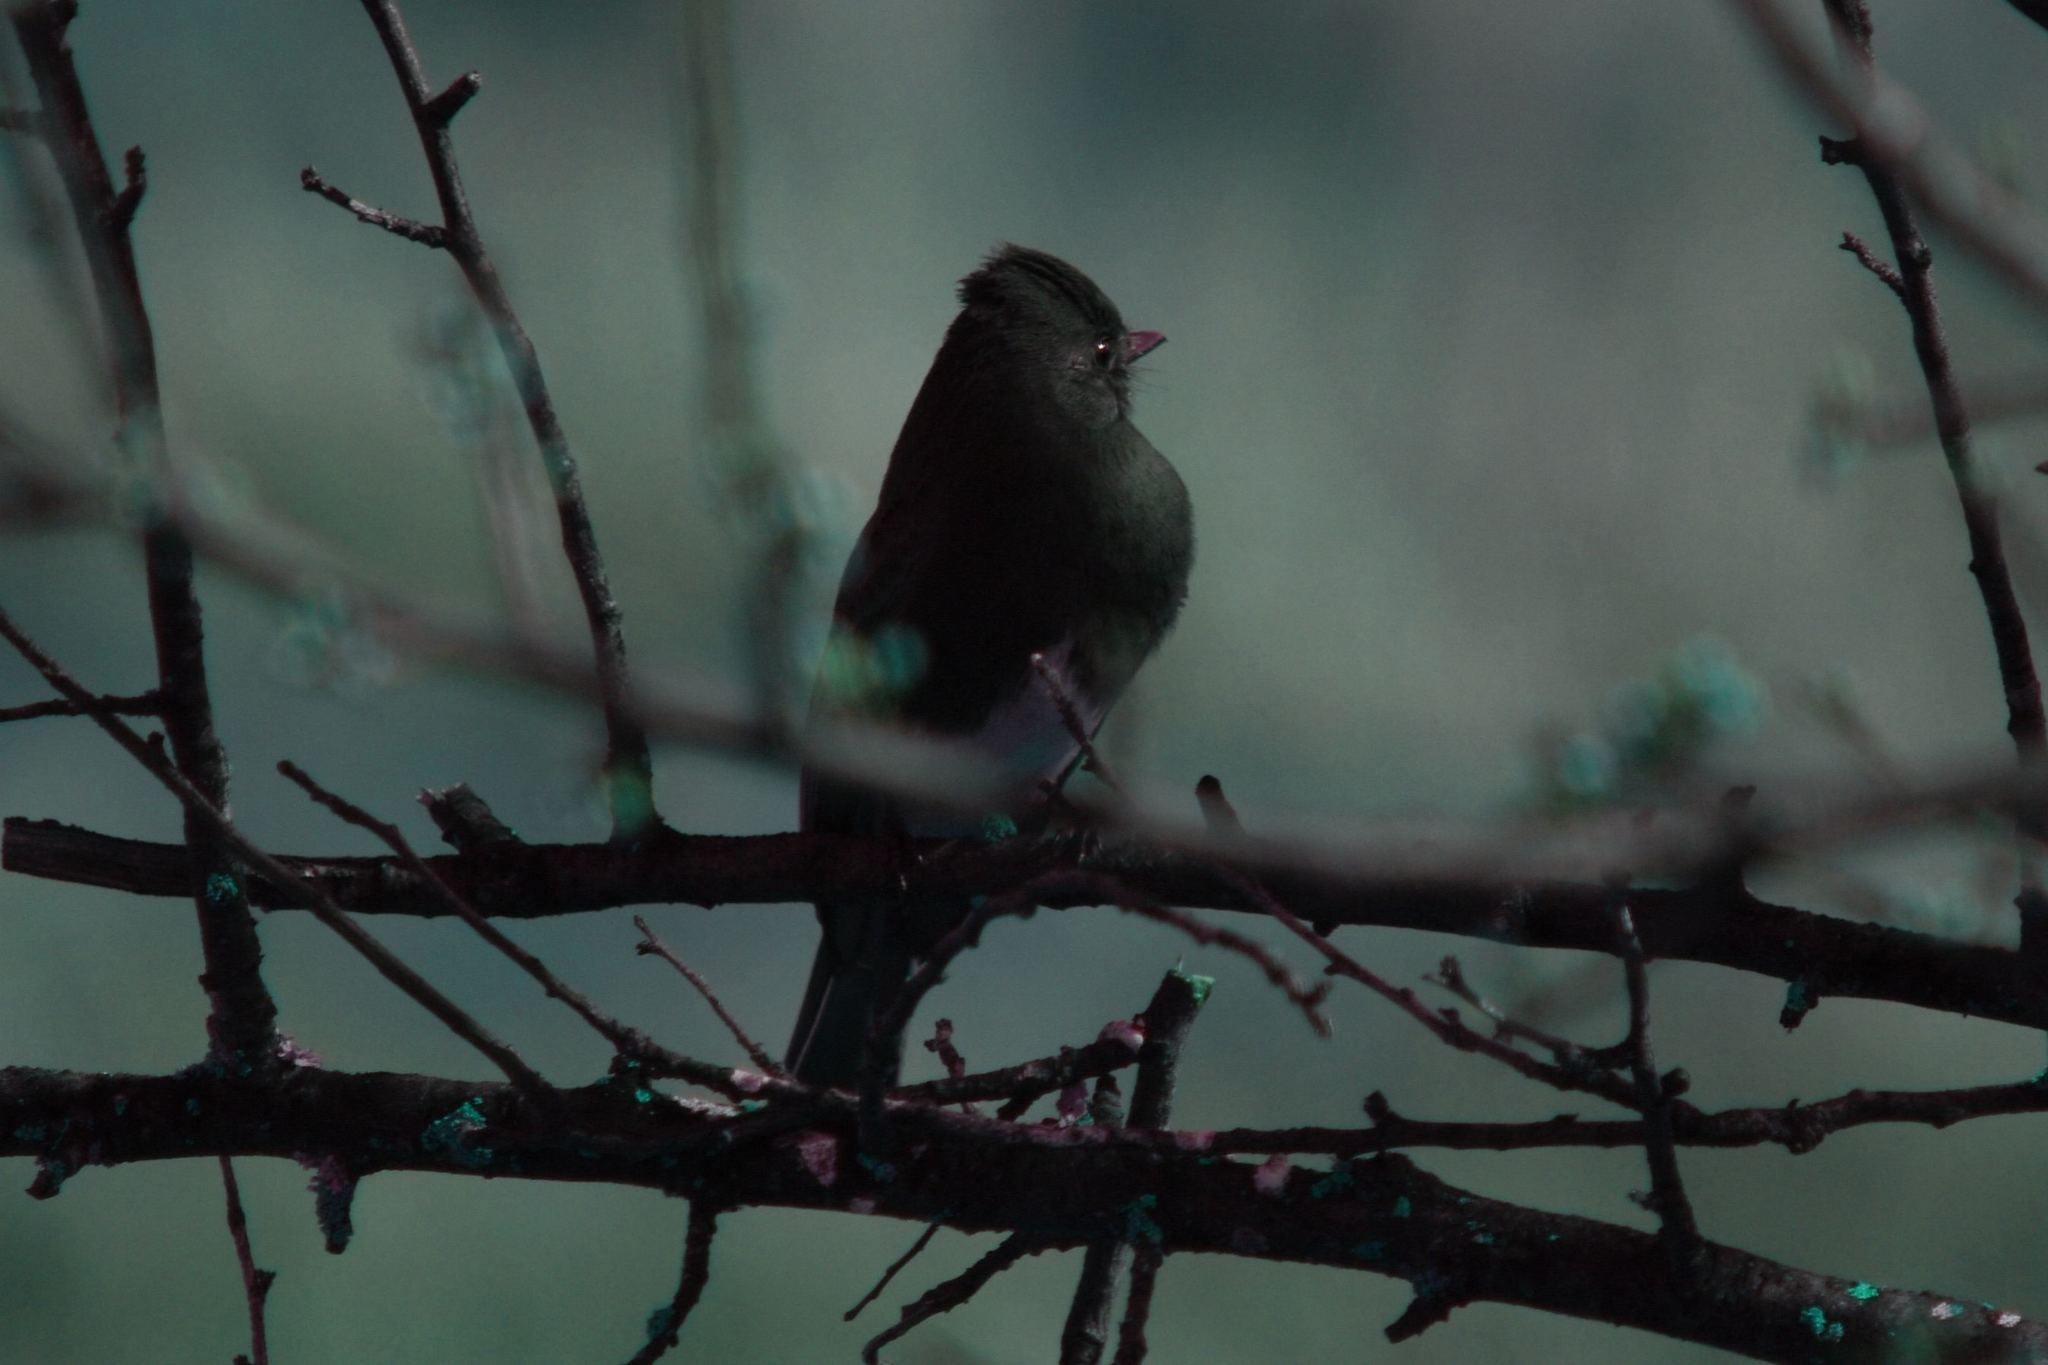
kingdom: Animalia
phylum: Chordata
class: Aves
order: Passeriformes
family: Tyrannidae
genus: Sayornis
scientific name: Sayornis nigricans
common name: Black phoebe
